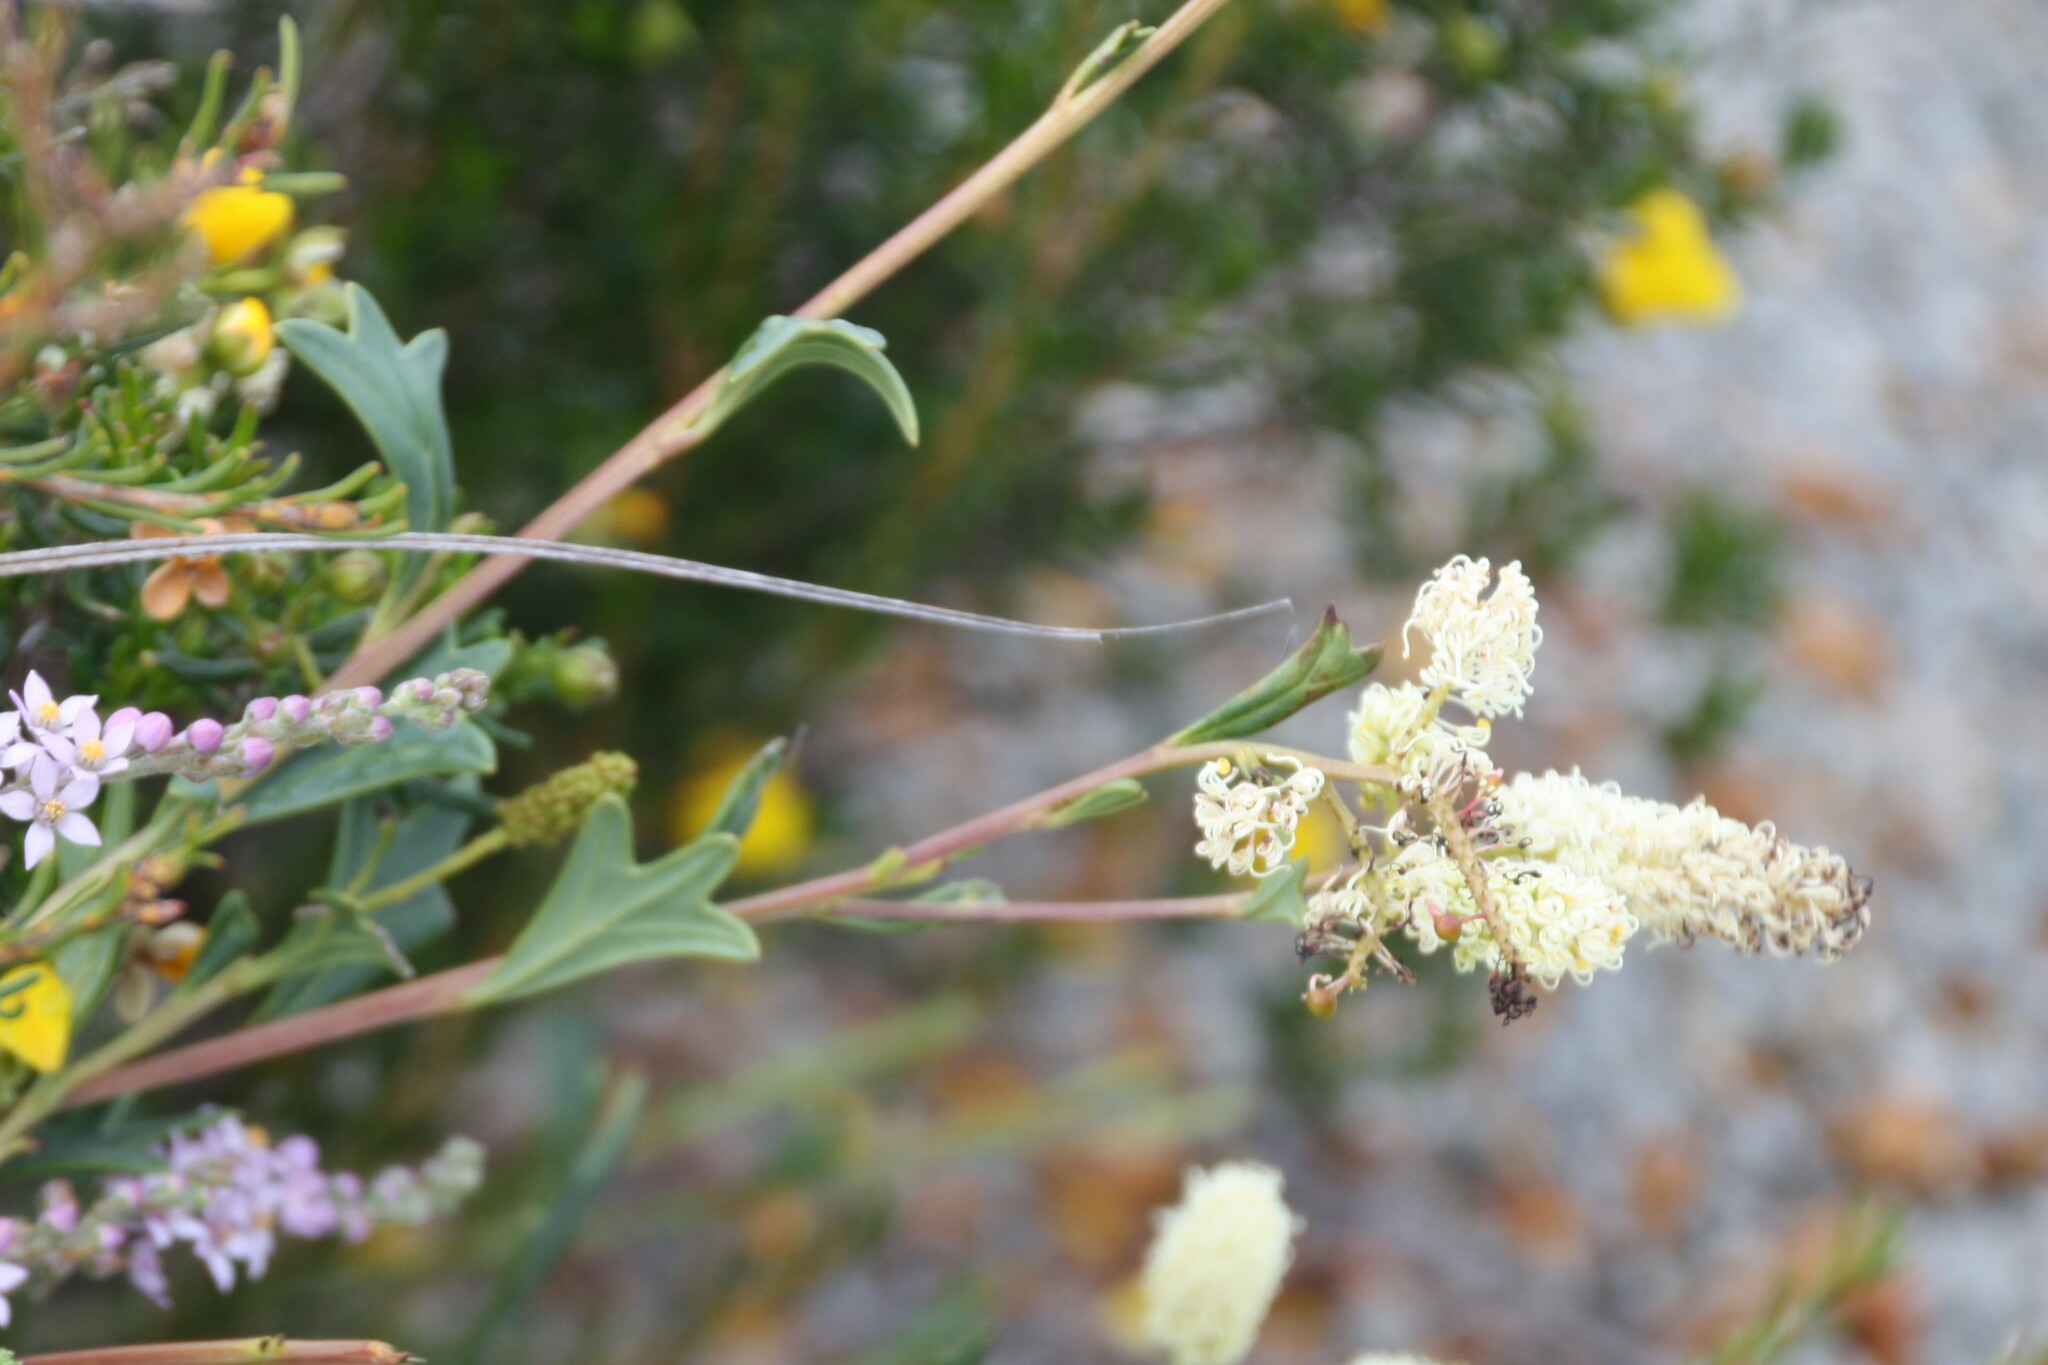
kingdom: Plantae
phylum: Tracheophyta
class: Magnoliopsida
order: Proteales
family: Proteaceae
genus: Grevillea
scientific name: Grevillea synaphea
